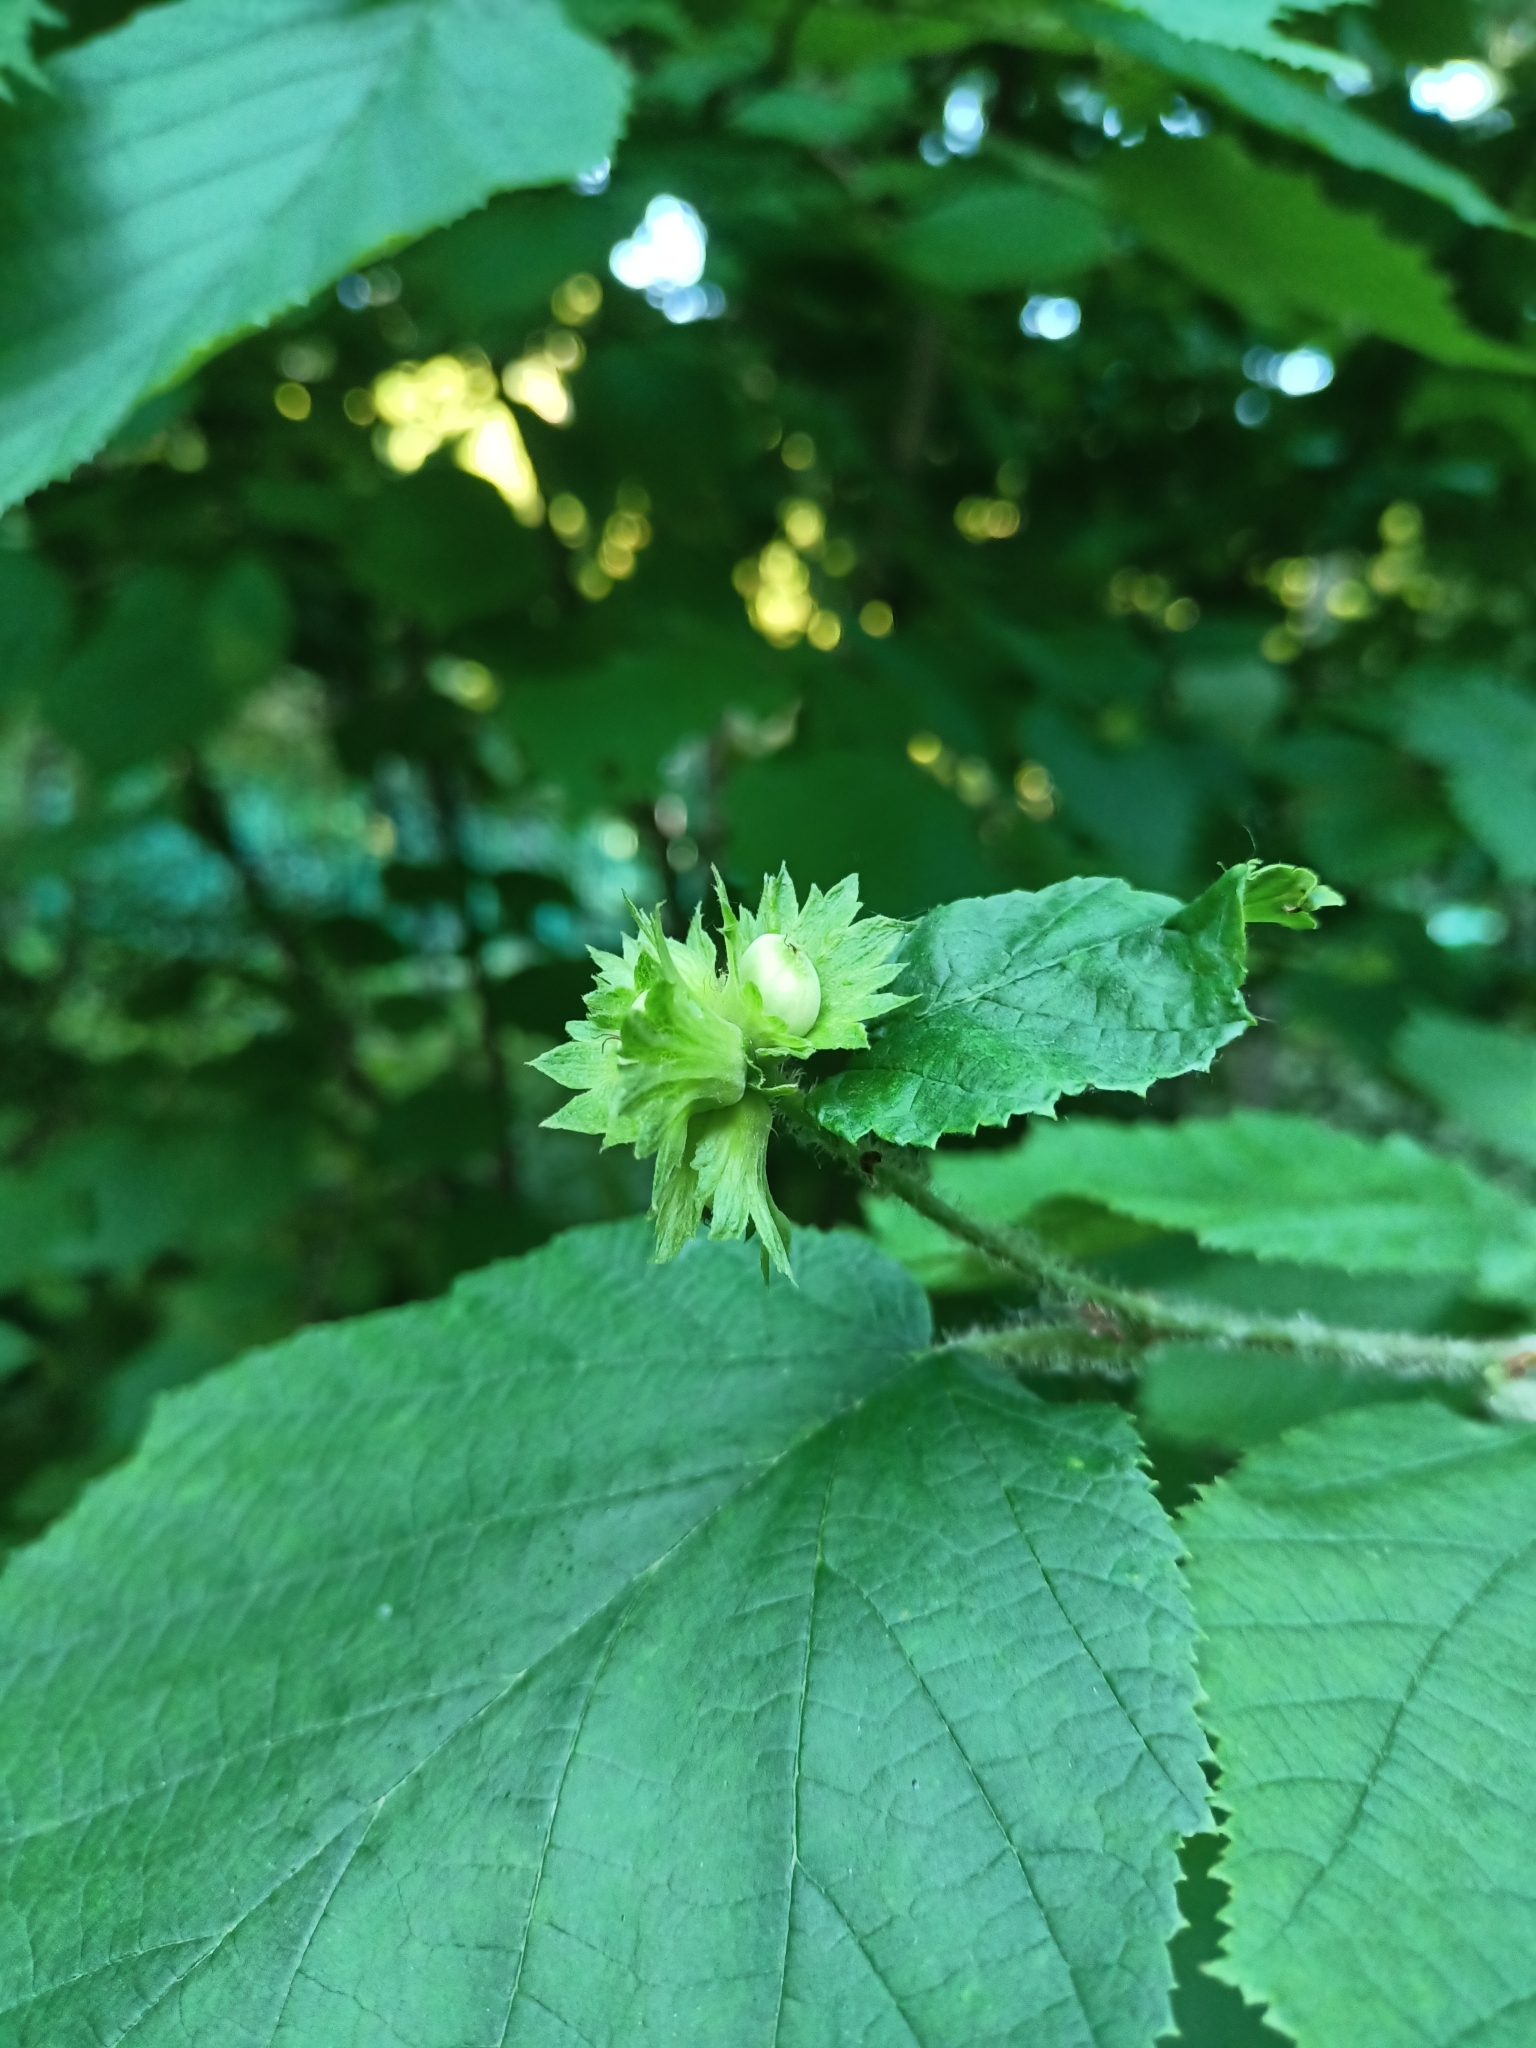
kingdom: Plantae
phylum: Tracheophyta
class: Magnoliopsida
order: Fagales
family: Betulaceae
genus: Corylus
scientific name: Corylus avellana
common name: European hazel
